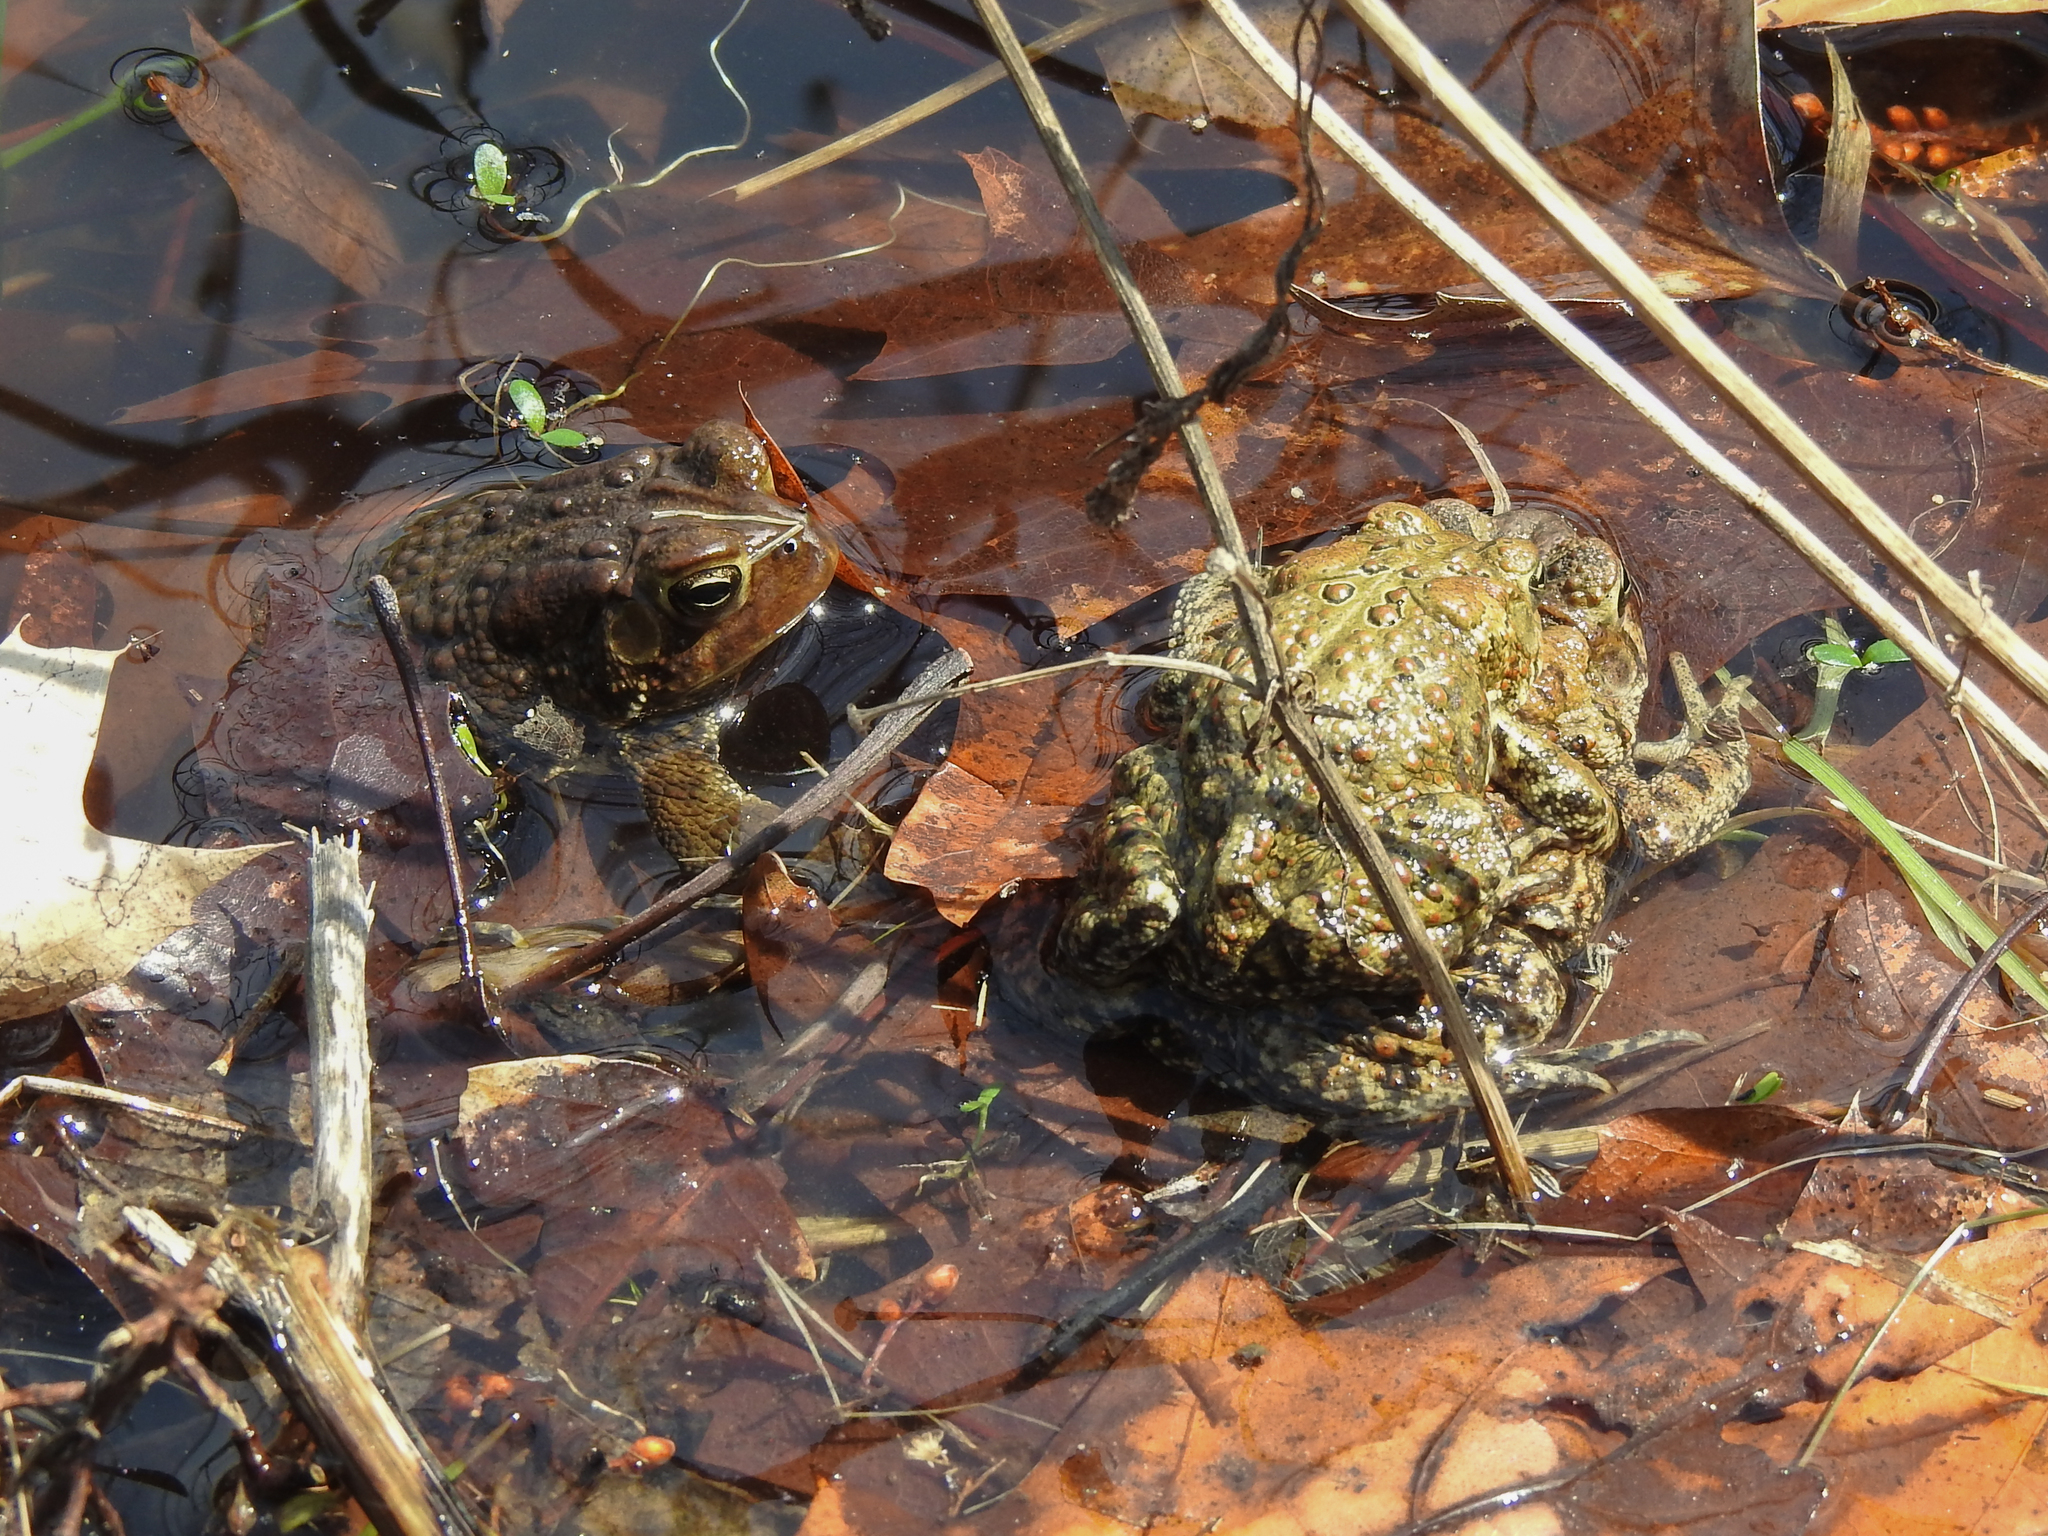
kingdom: Animalia
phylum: Chordata
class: Amphibia
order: Anura
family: Bufonidae
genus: Anaxyrus
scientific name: Anaxyrus americanus
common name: American toad
